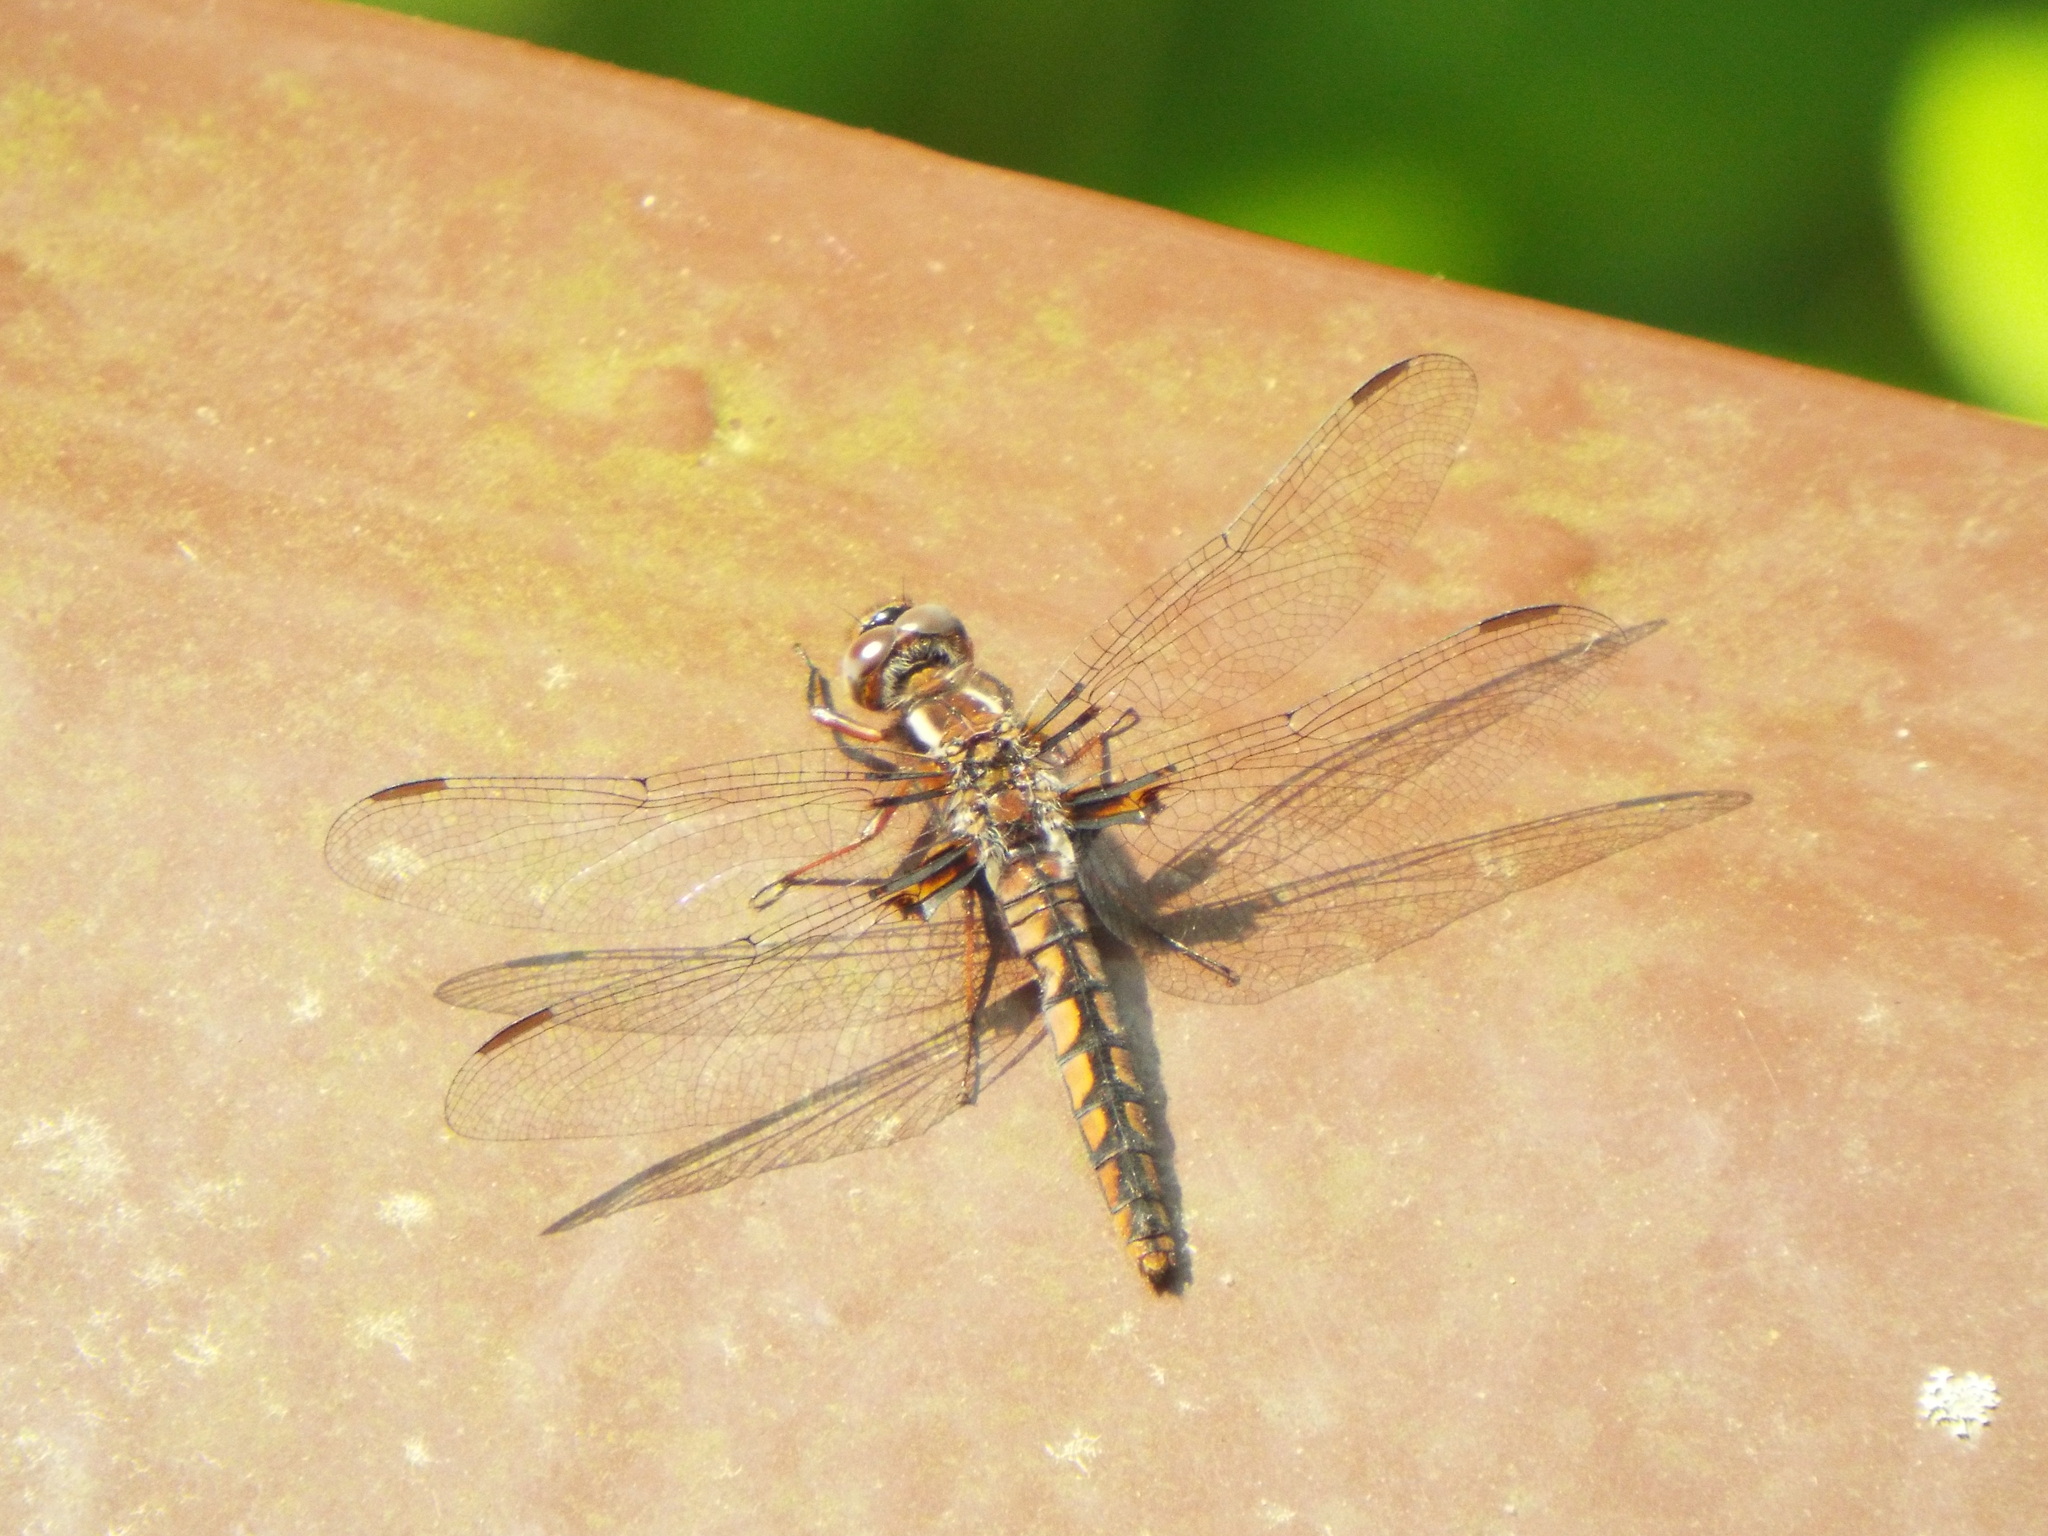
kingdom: Animalia
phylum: Arthropoda
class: Insecta
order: Odonata
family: Libellulidae
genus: Ladona
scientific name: Ladona deplanata
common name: Blue corporal
